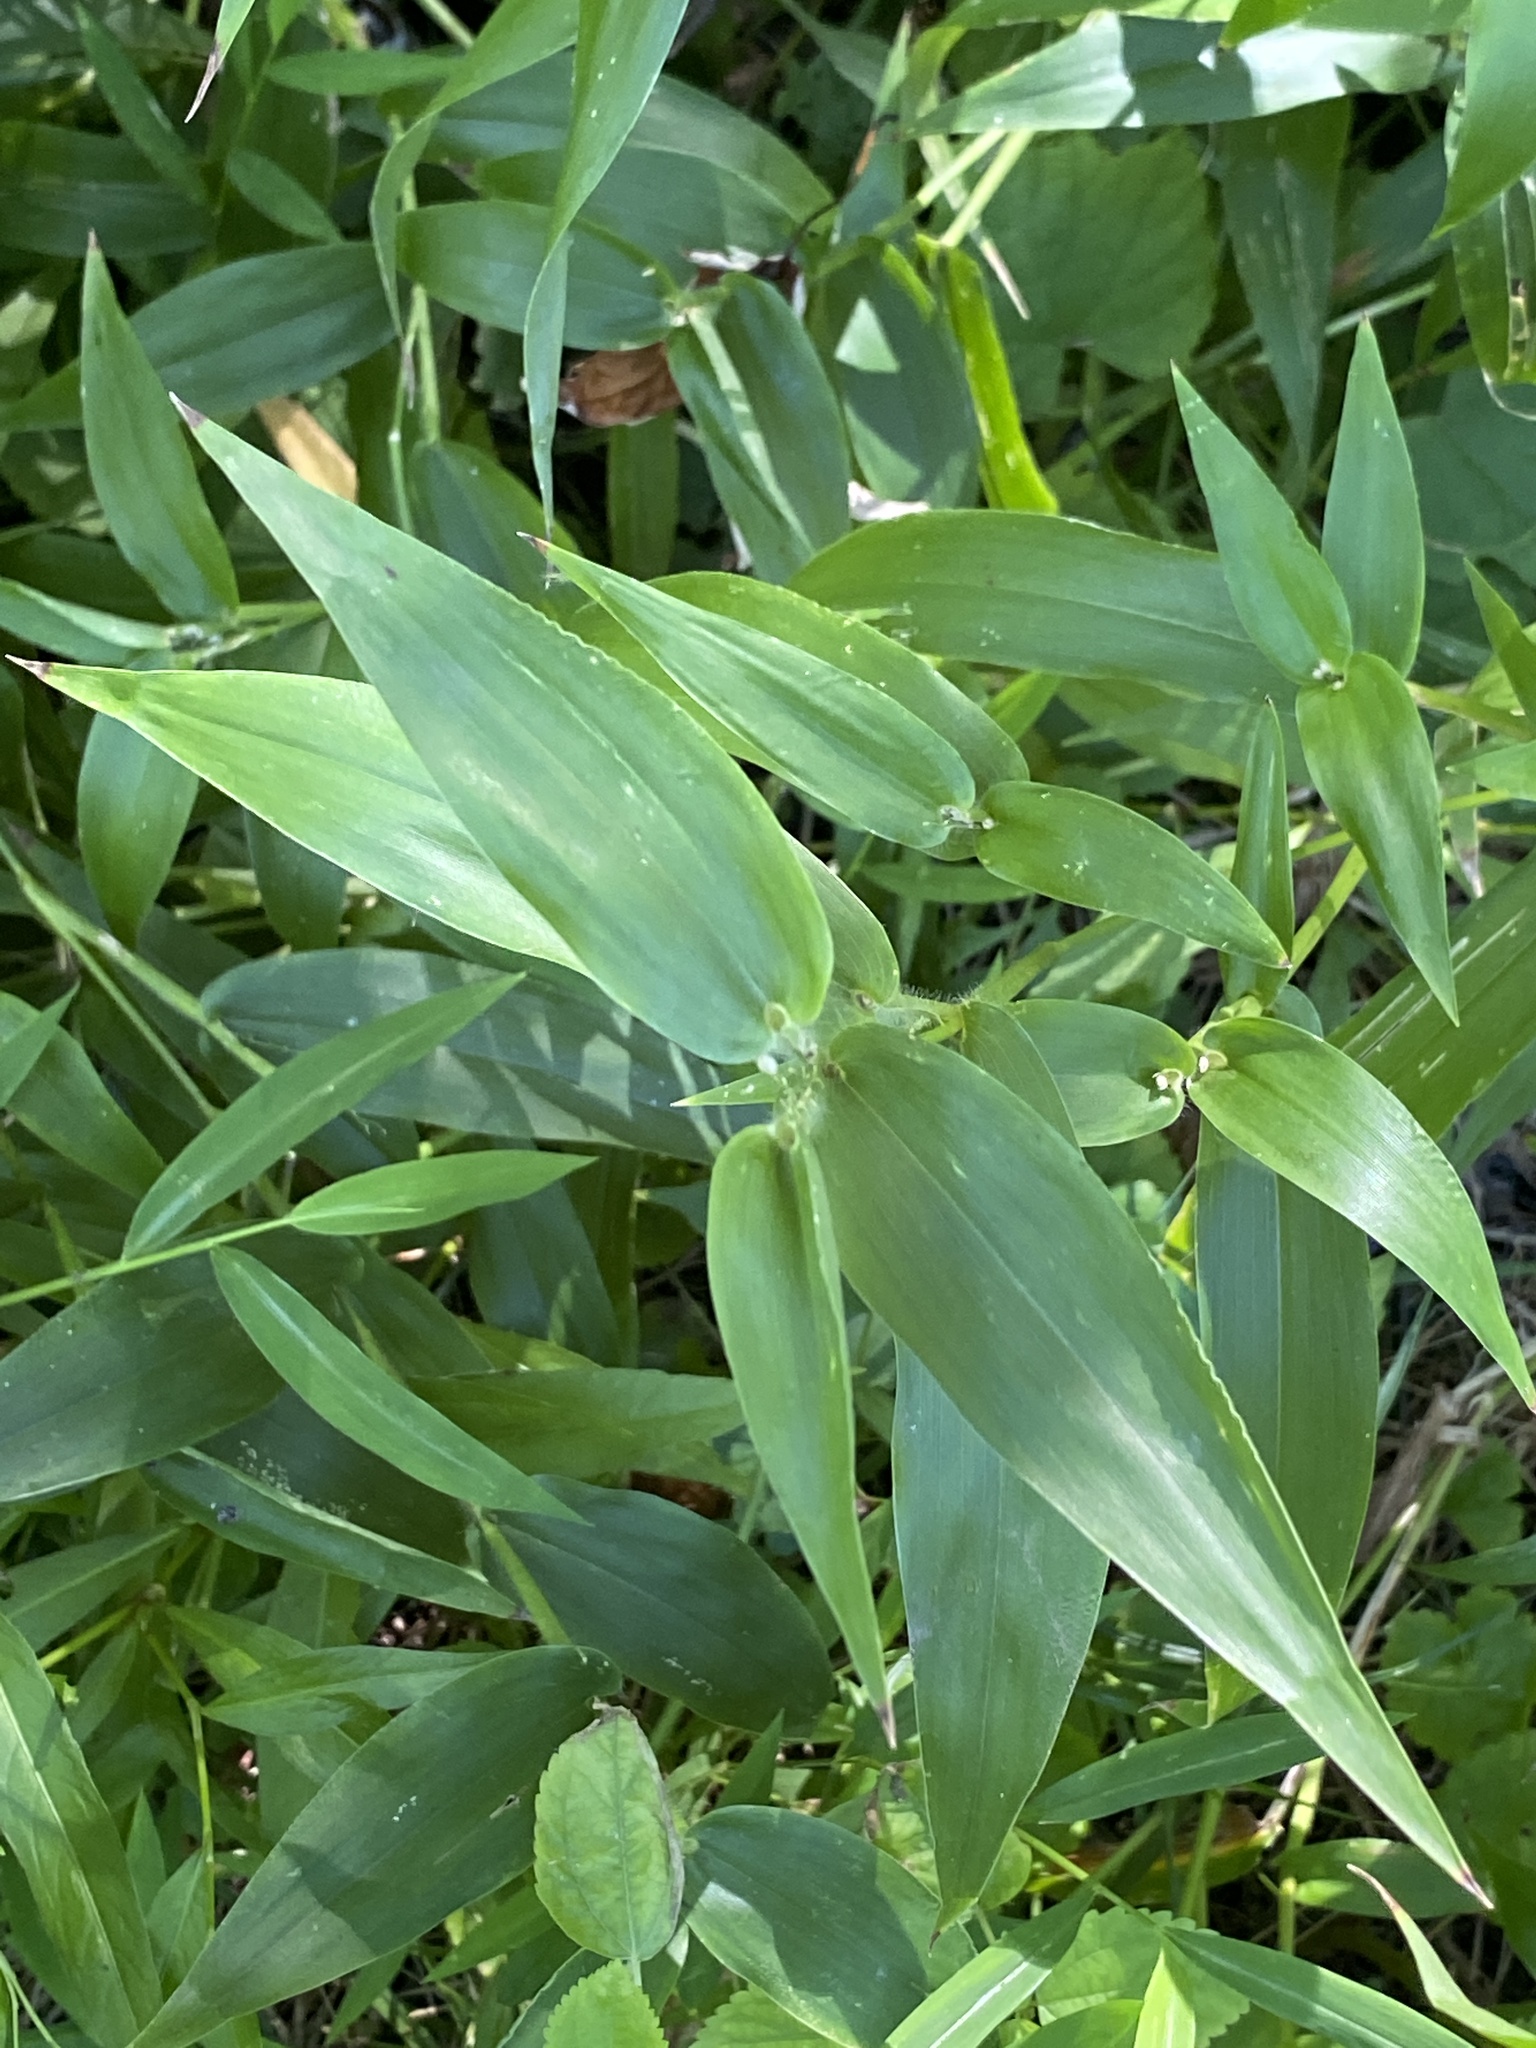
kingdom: Plantae
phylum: Tracheophyta
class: Liliopsida
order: Poales
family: Poaceae
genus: Dichanthelium
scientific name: Dichanthelium clandestinum
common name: Deer-tongue grass
